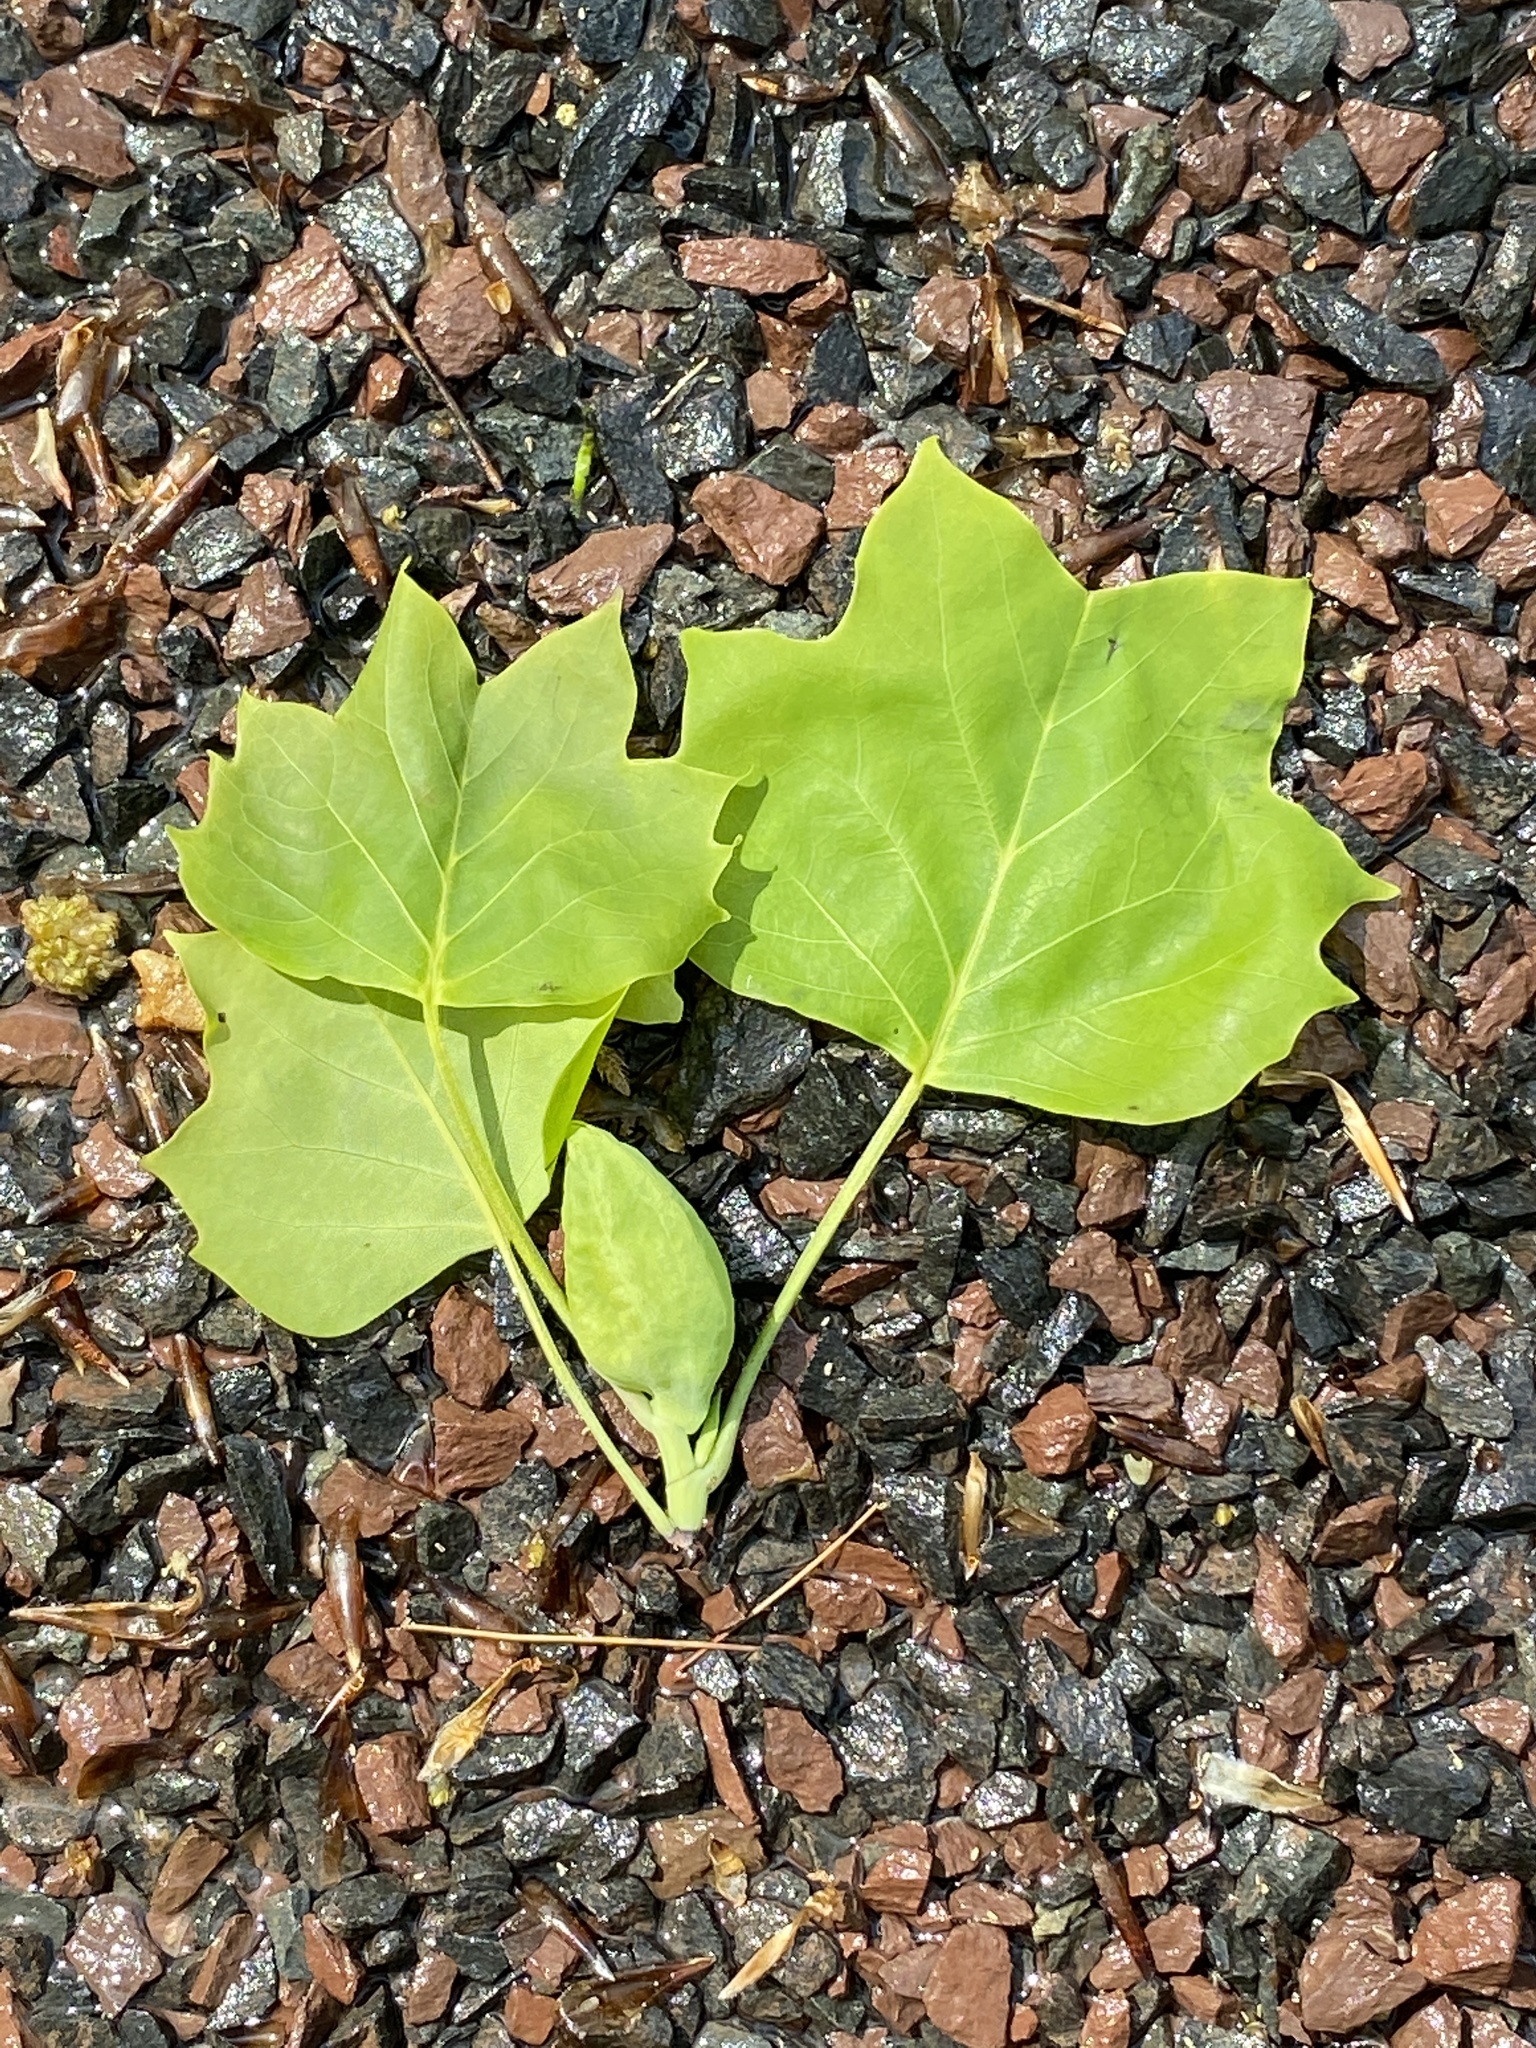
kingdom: Plantae
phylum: Tracheophyta
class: Magnoliopsida
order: Magnoliales
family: Magnoliaceae
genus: Liriodendron
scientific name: Liriodendron tulipifera
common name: Tulip tree
